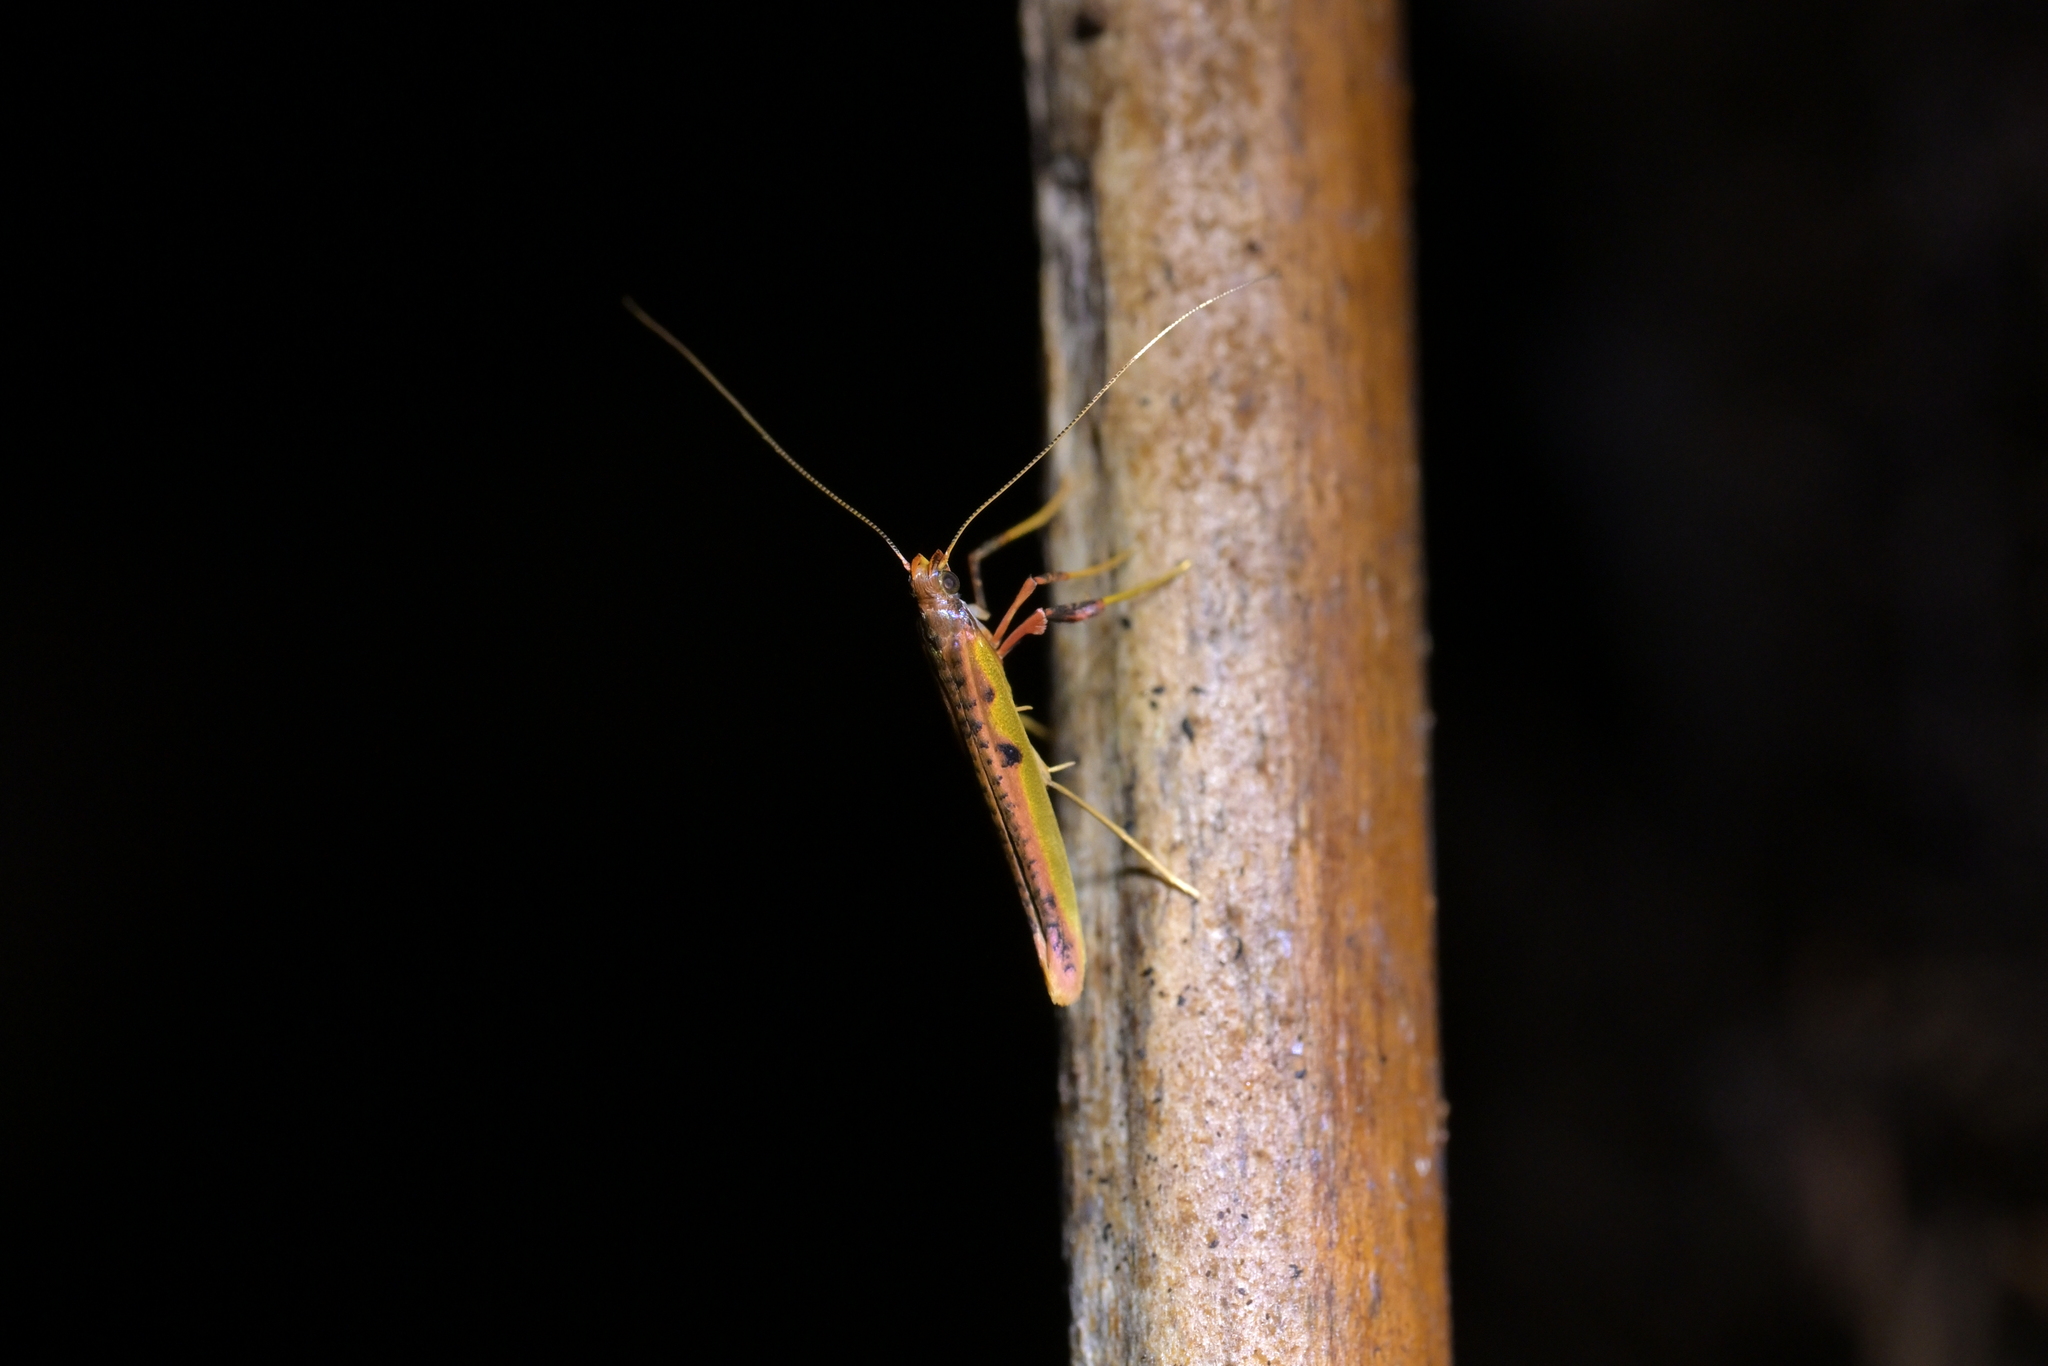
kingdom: Animalia
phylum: Arthropoda
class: Insecta
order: Lepidoptera
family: Gracillariidae
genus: Caloptilia
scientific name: Caloptilia chrysitis
